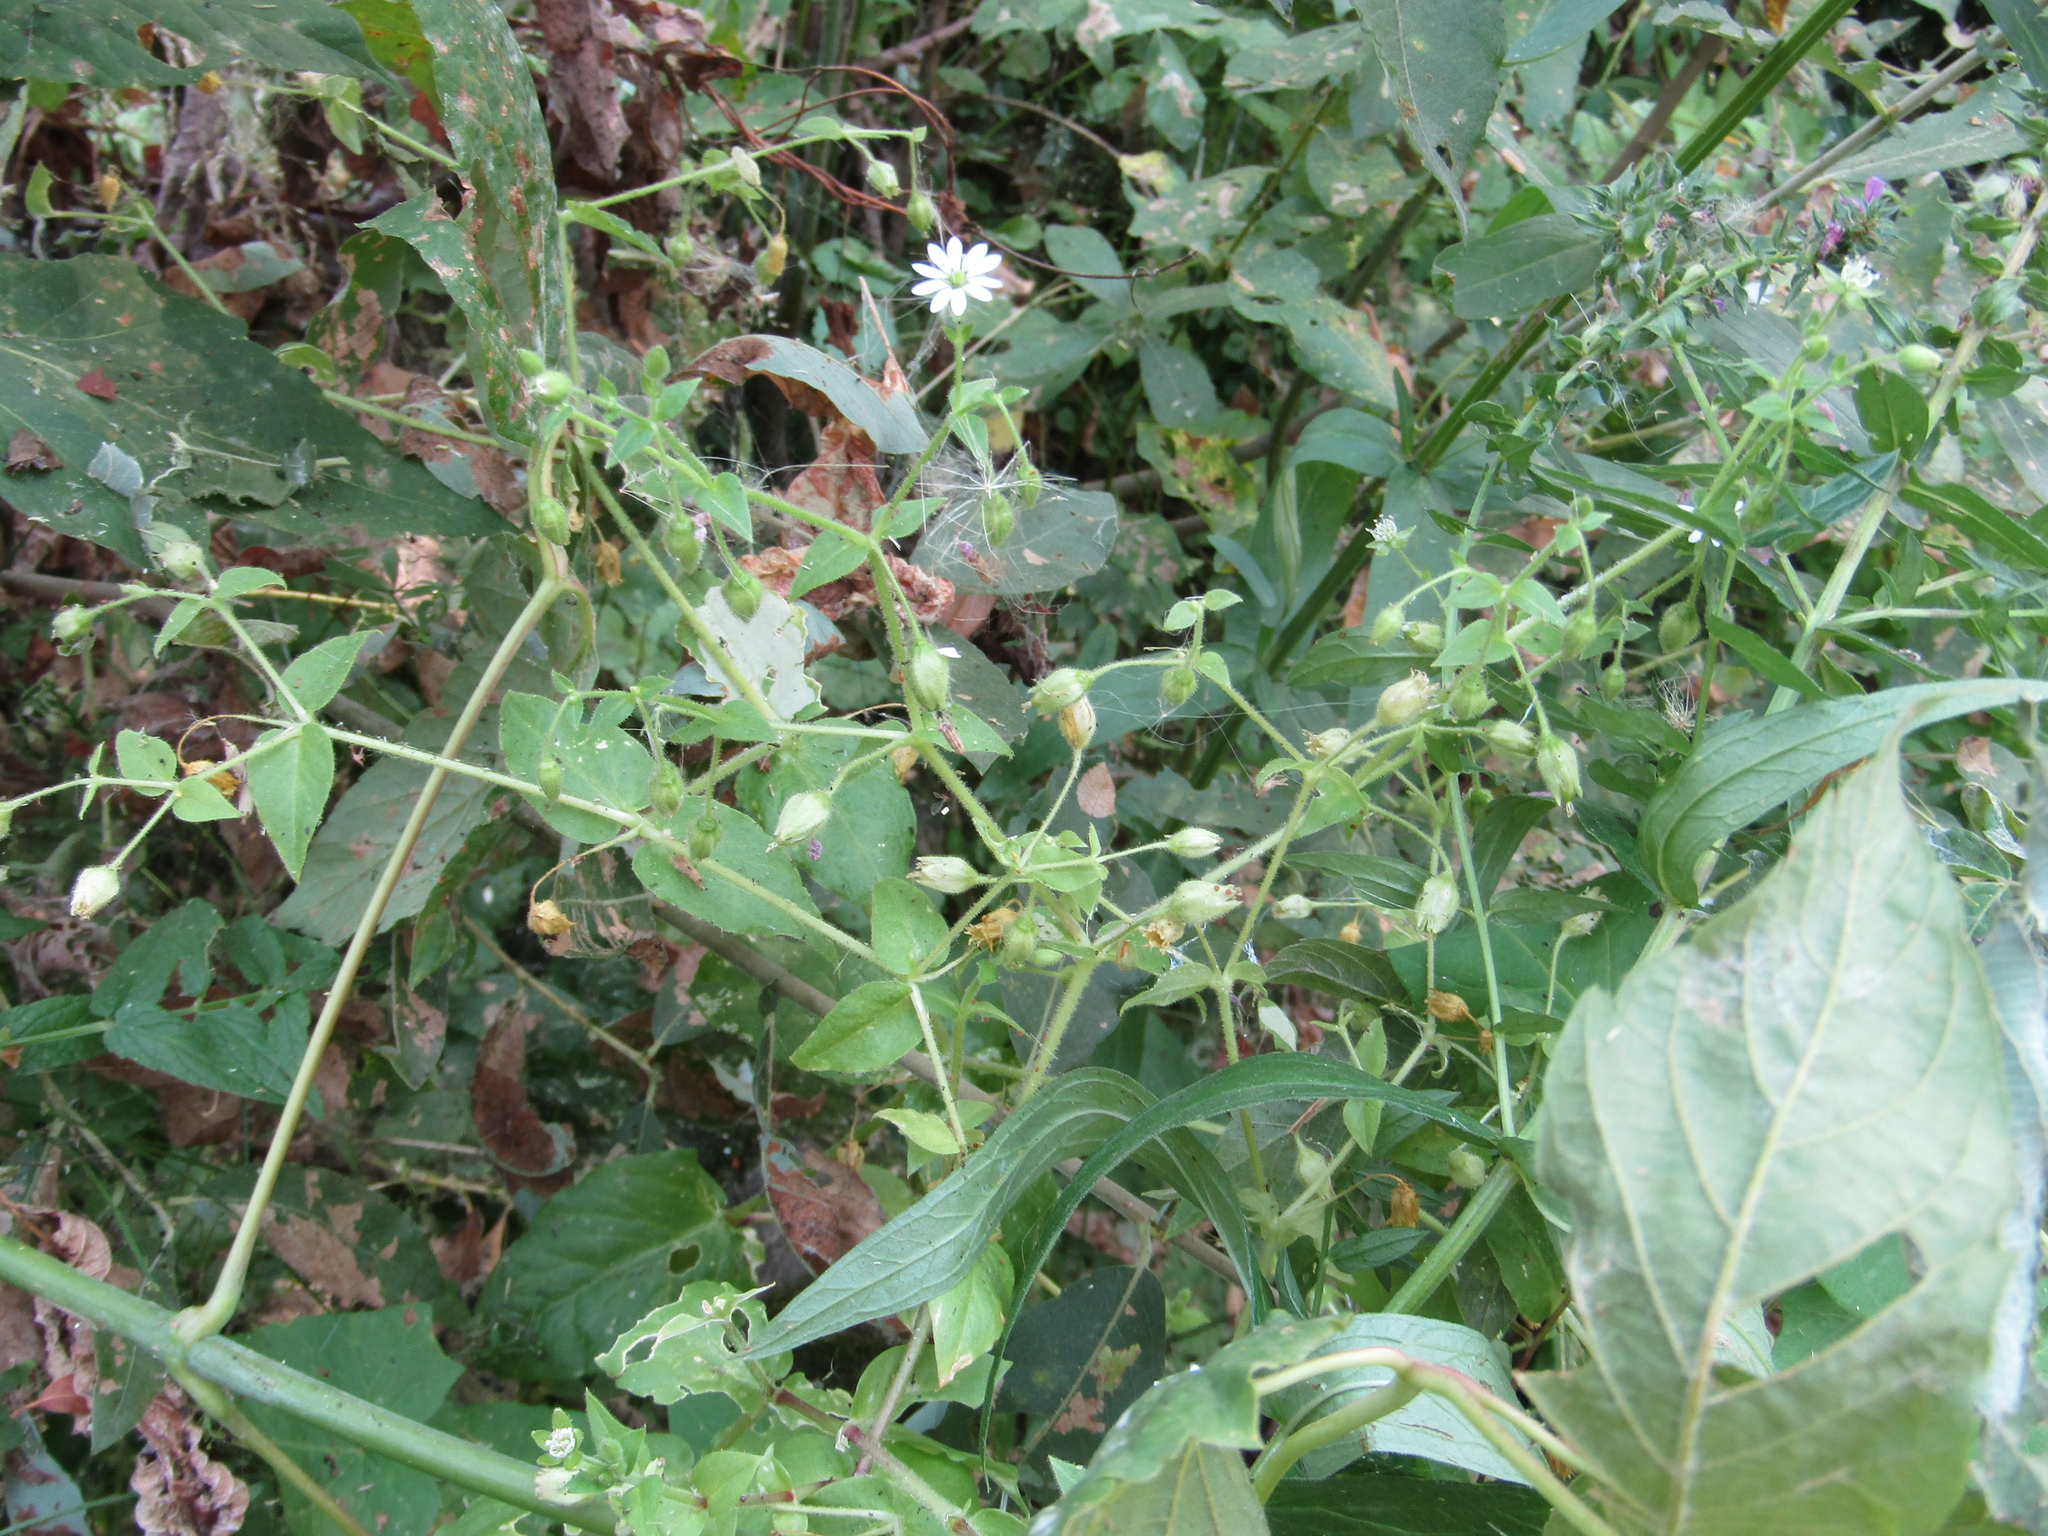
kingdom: Plantae
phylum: Tracheophyta
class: Magnoliopsida
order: Caryophyllales
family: Caryophyllaceae
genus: Stellaria
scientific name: Stellaria aquatica
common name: Water chickweed
